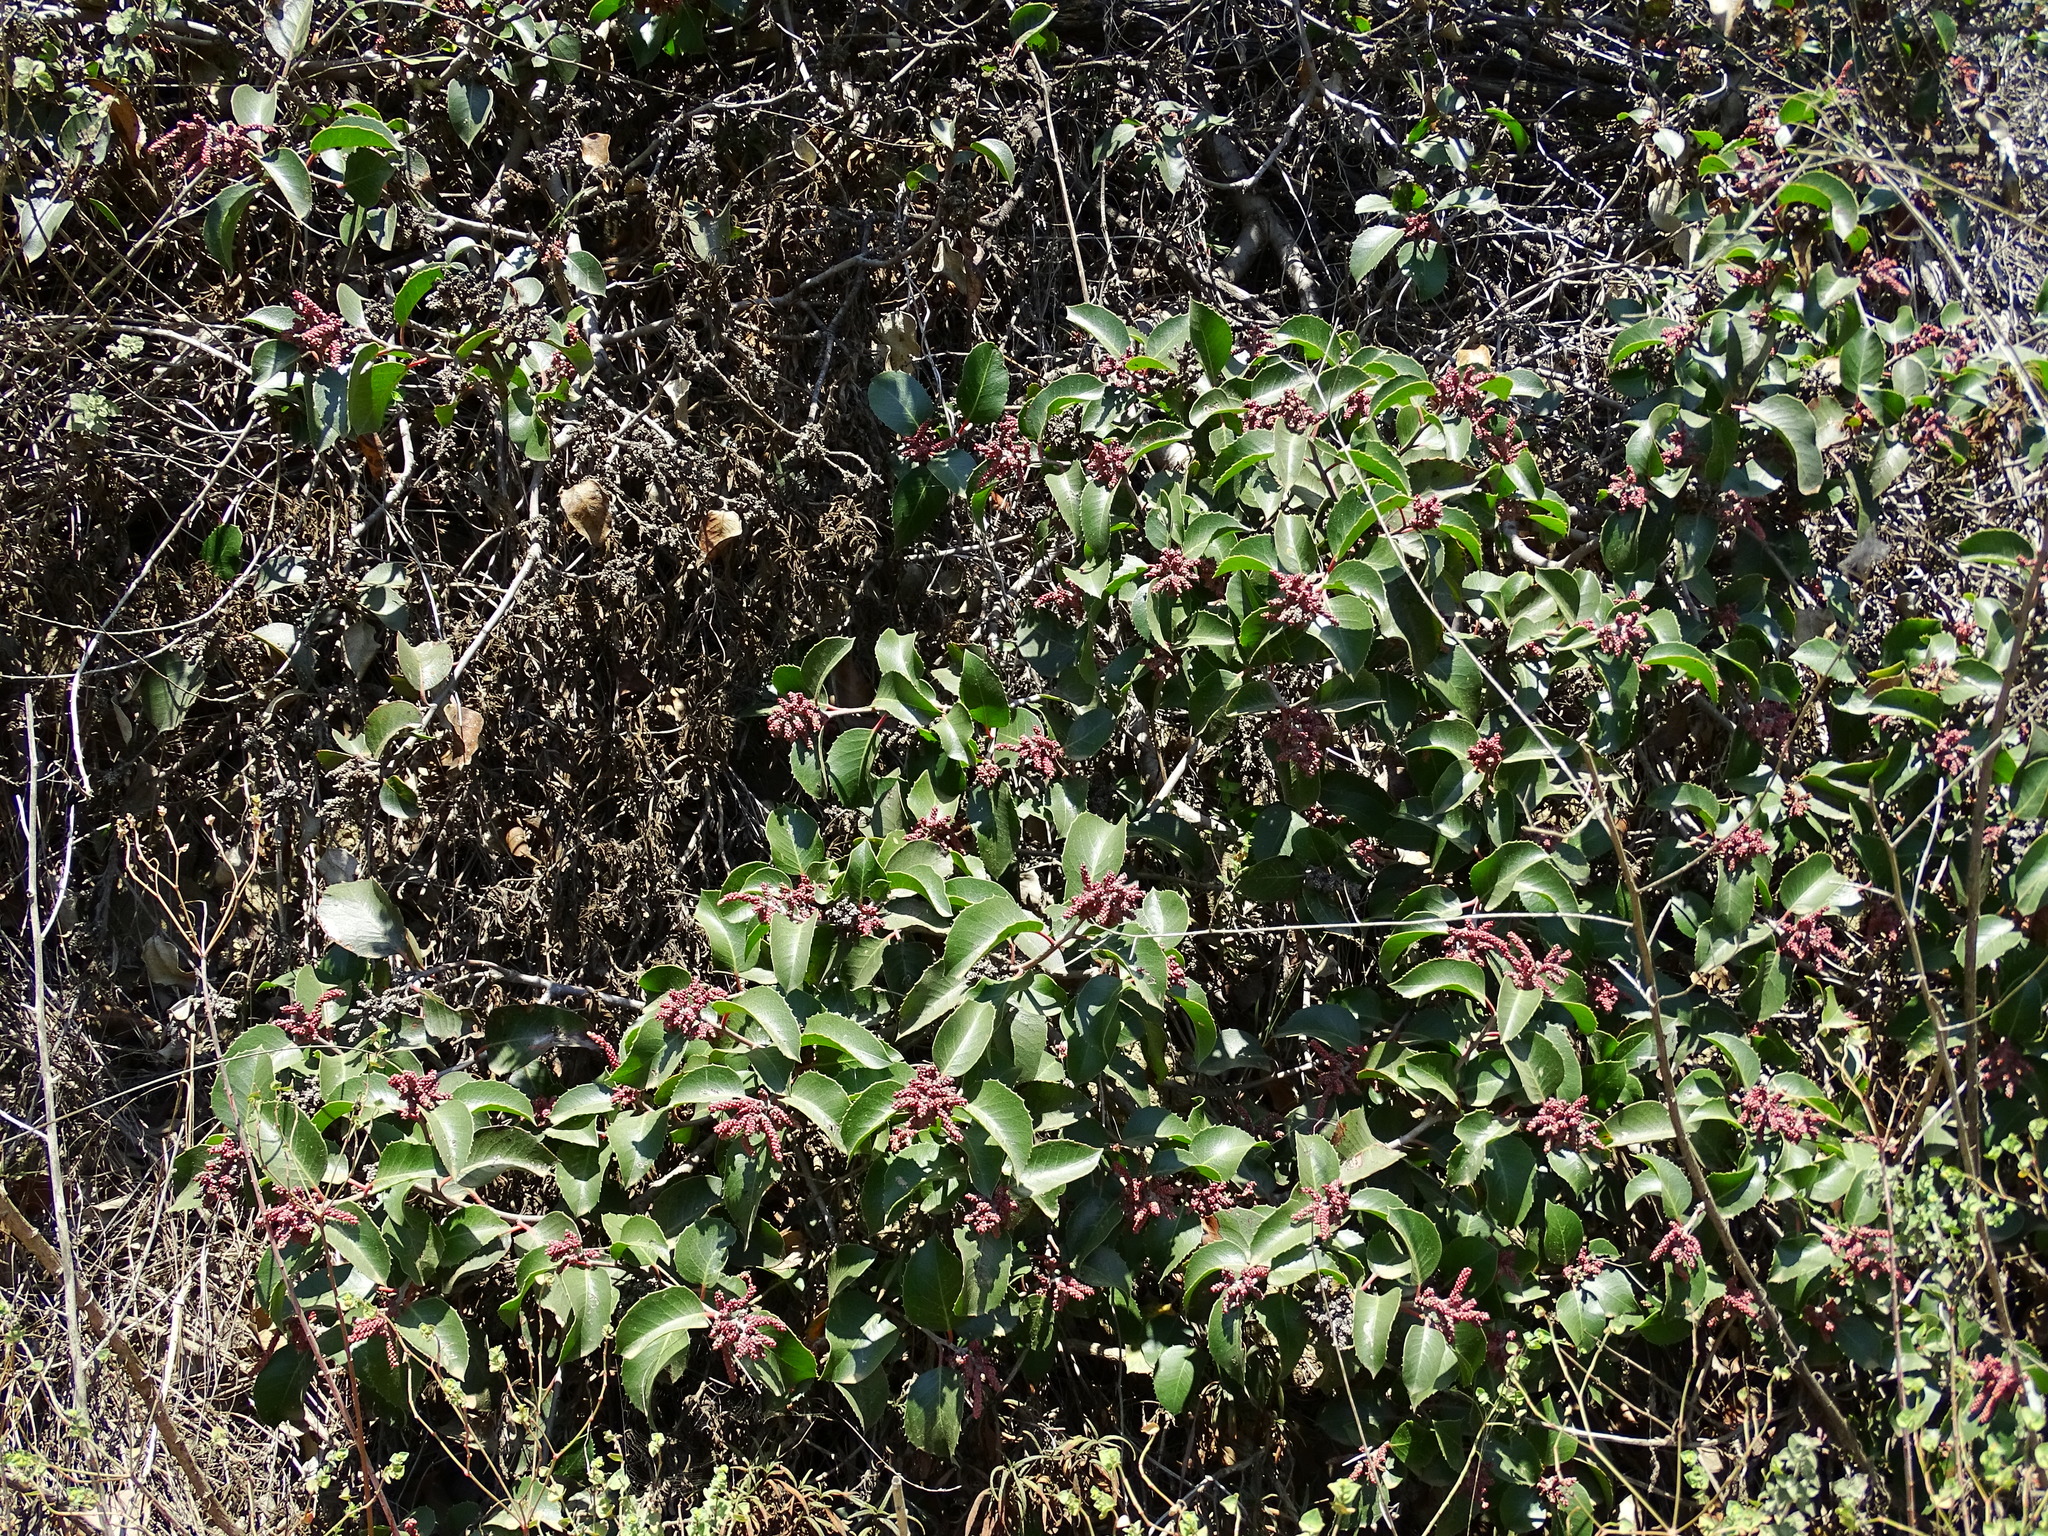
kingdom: Plantae
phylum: Tracheophyta
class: Magnoliopsida
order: Sapindales
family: Anacardiaceae
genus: Rhus
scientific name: Rhus ovata
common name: Sugar sumac
